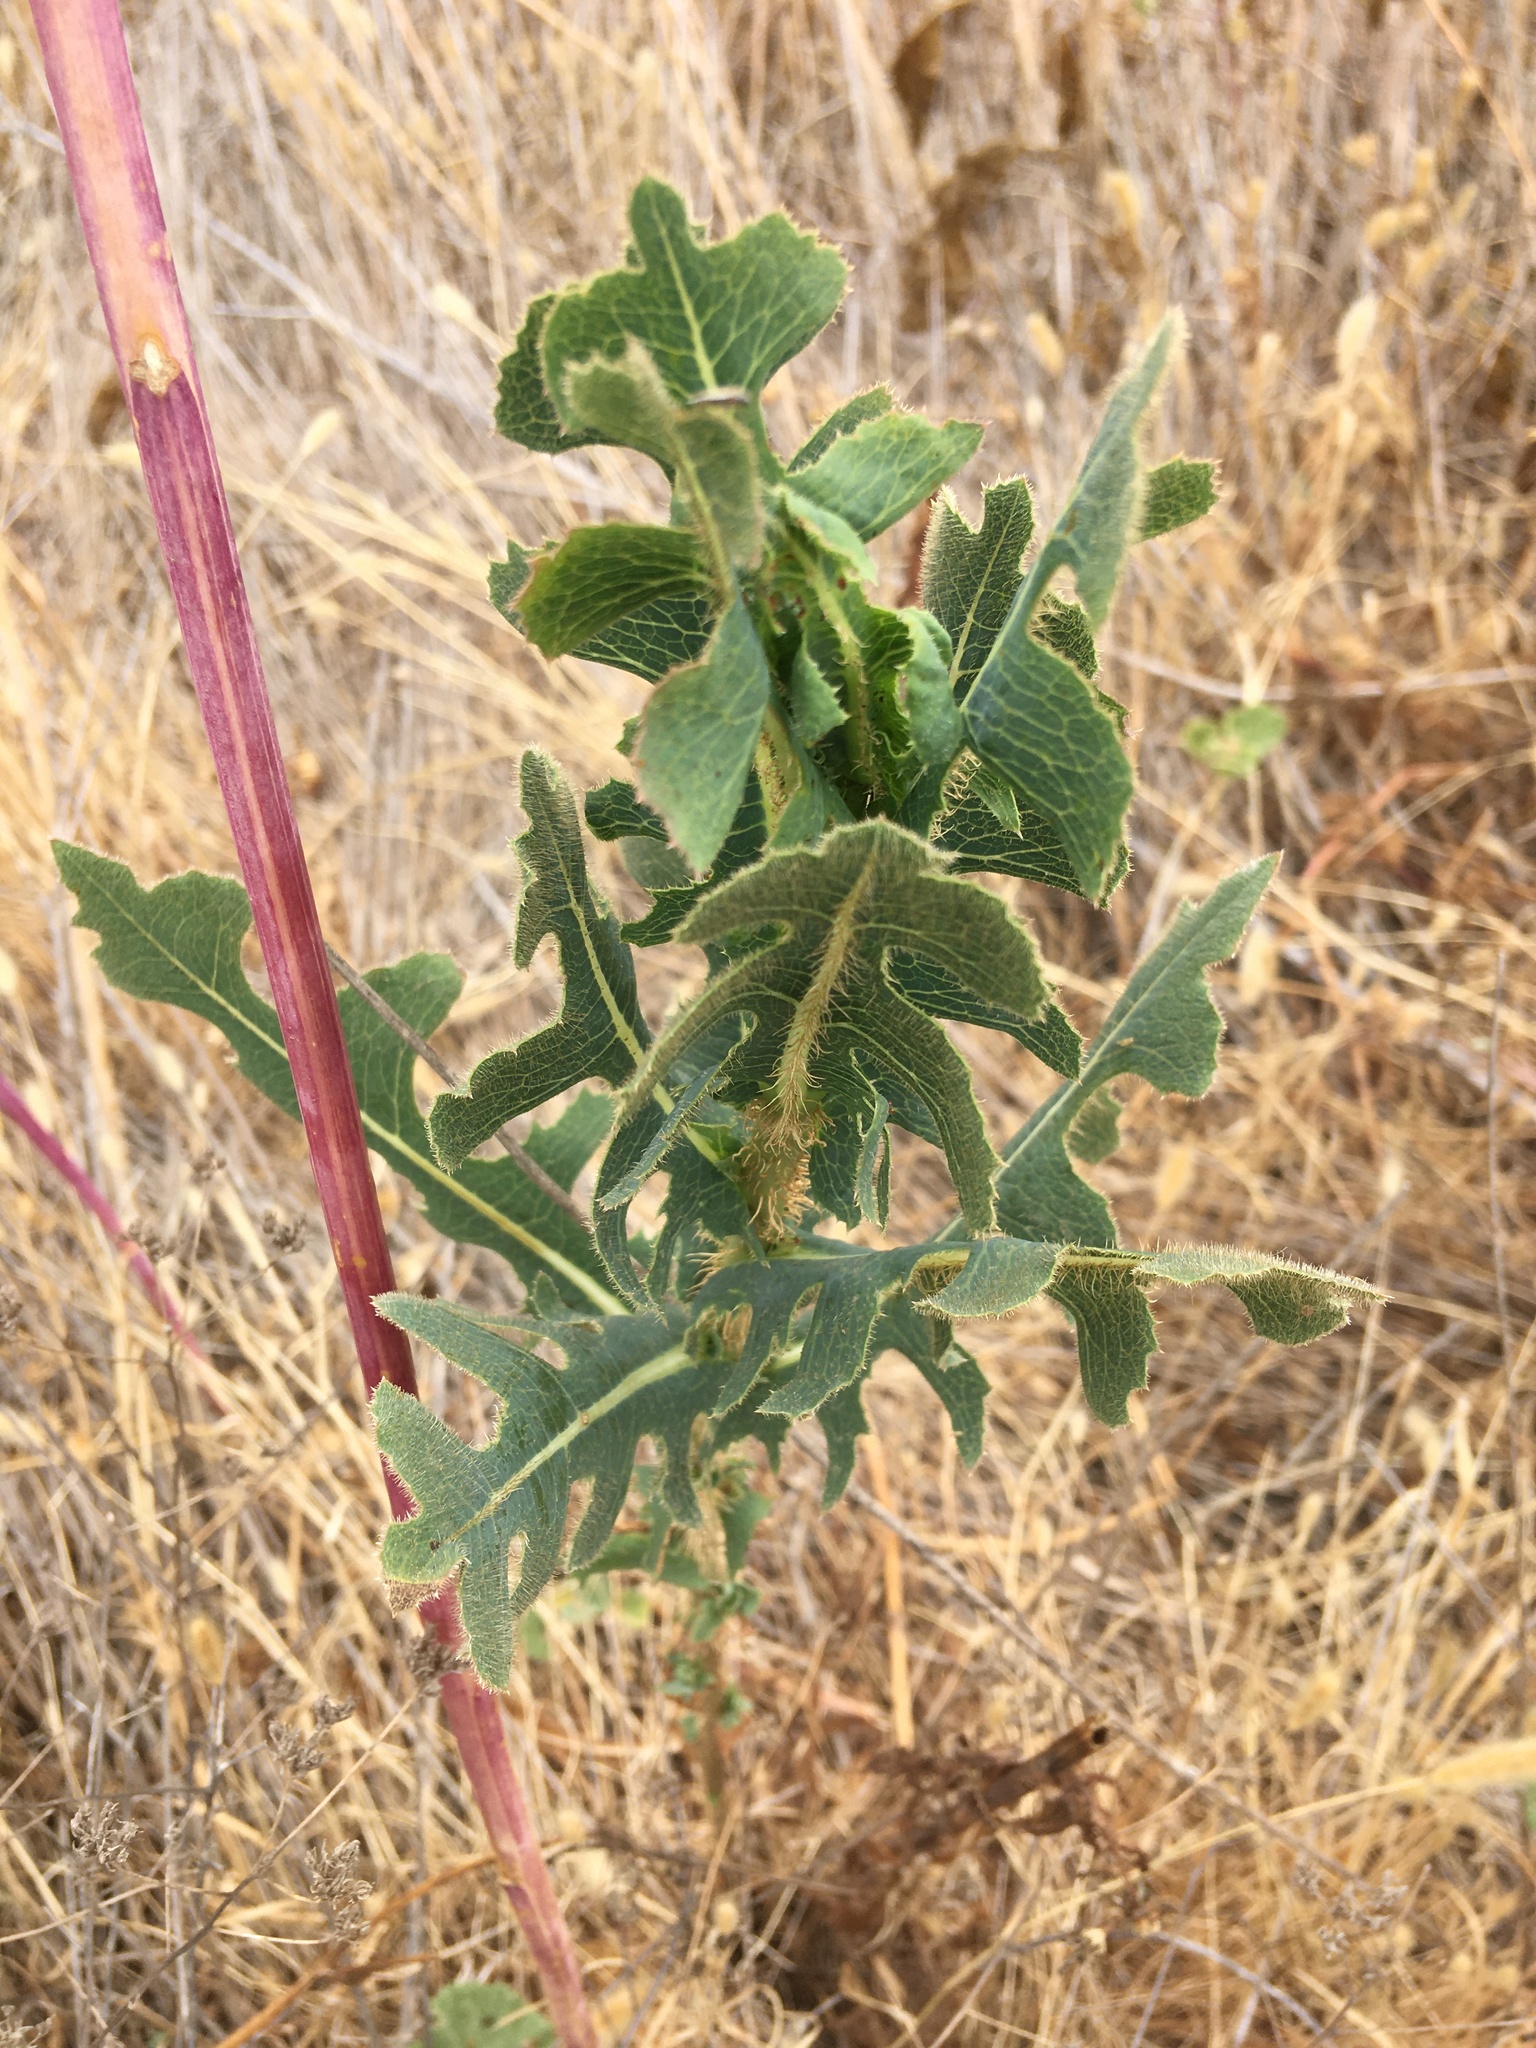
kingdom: Plantae
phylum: Tracheophyta
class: Magnoliopsida
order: Asterales
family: Asteraceae
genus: Lactuca
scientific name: Lactuca serriola
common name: Prickly lettuce
